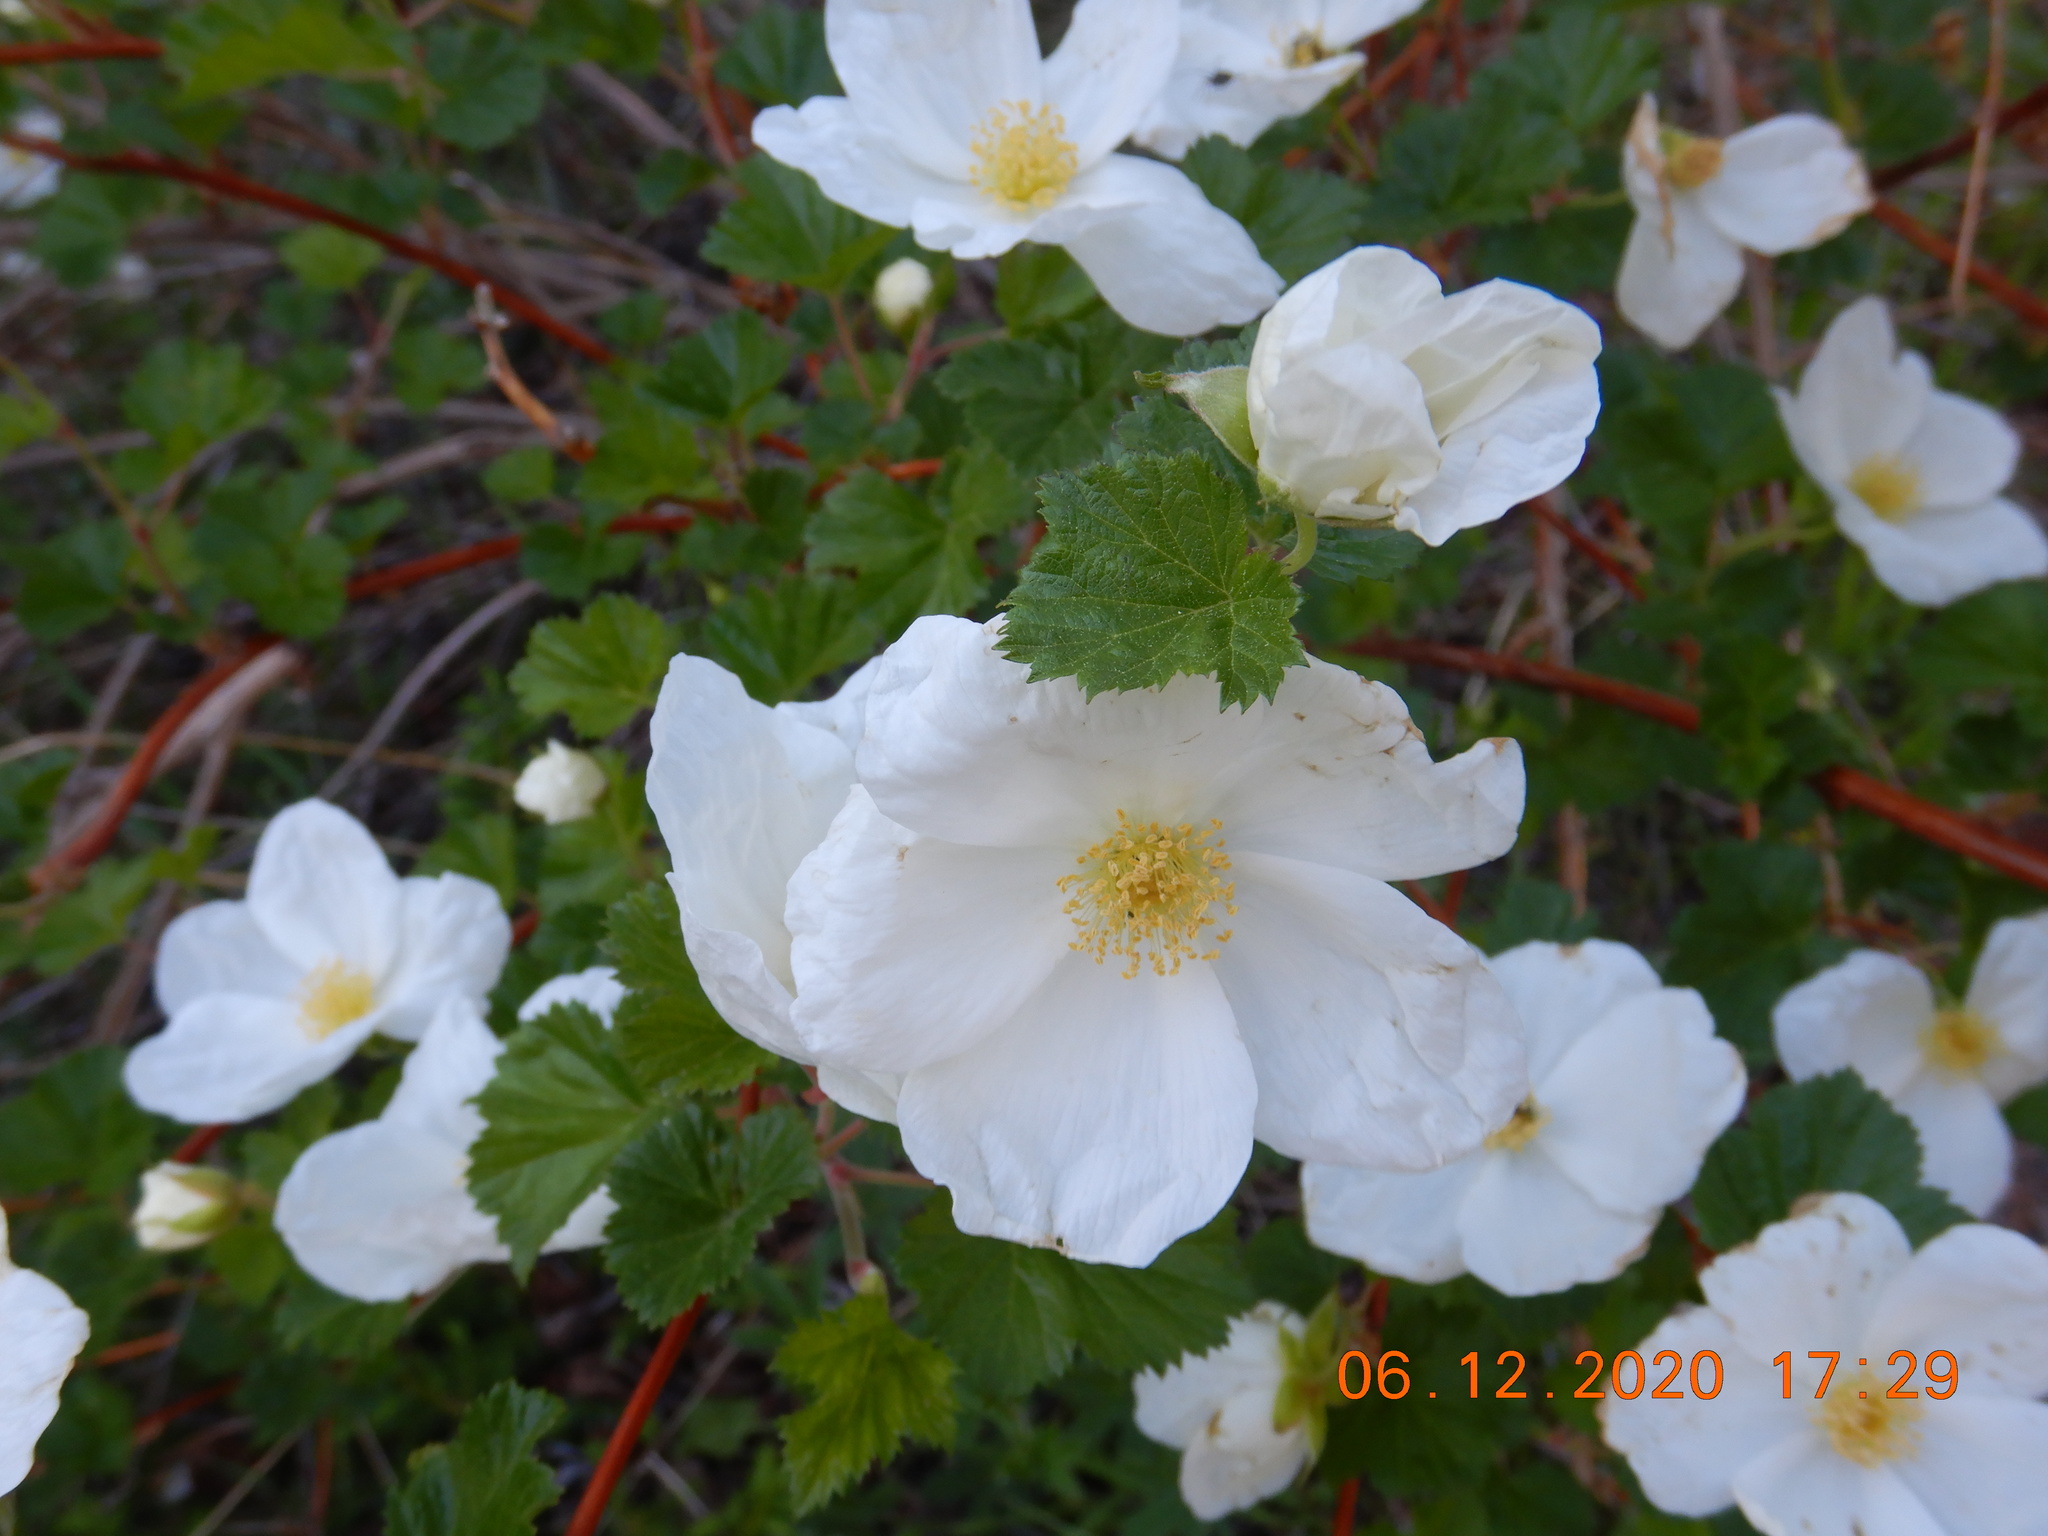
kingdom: Plantae
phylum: Tracheophyta
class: Magnoliopsida
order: Rosales
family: Rosaceae
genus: Rubus
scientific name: Rubus deliciosus
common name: Rocky mountain raspberry
